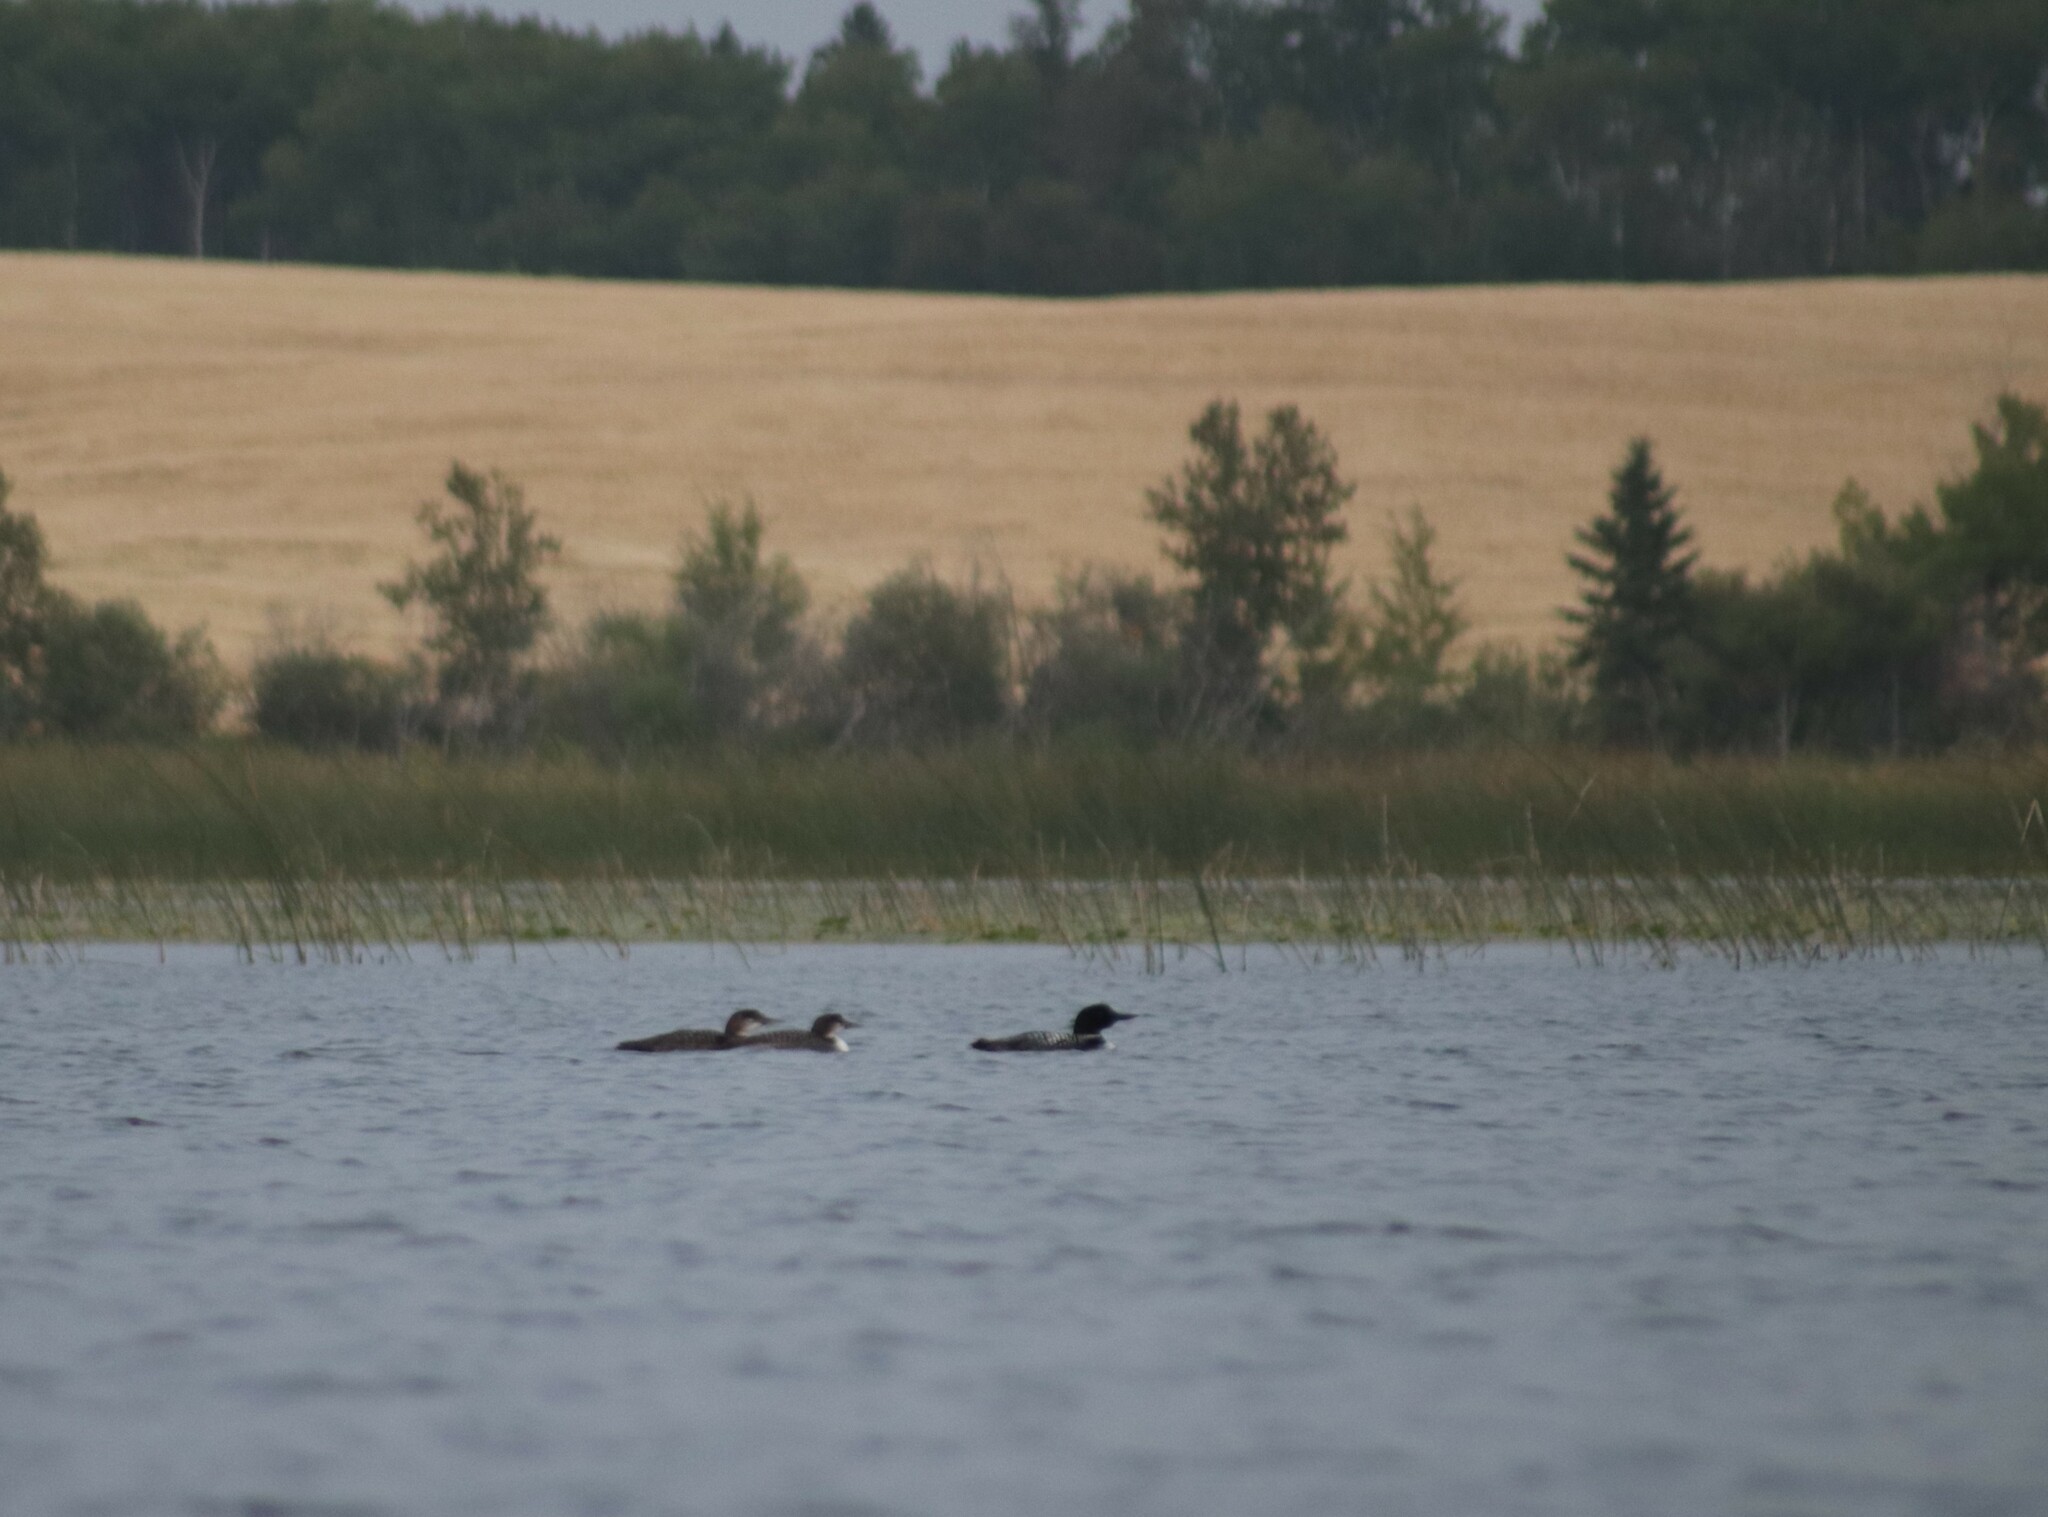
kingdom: Animalia
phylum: Chordata
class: Aves
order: Gaviiformes
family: Gaviidae
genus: Gavia
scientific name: Gavia immer
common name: Common loon
